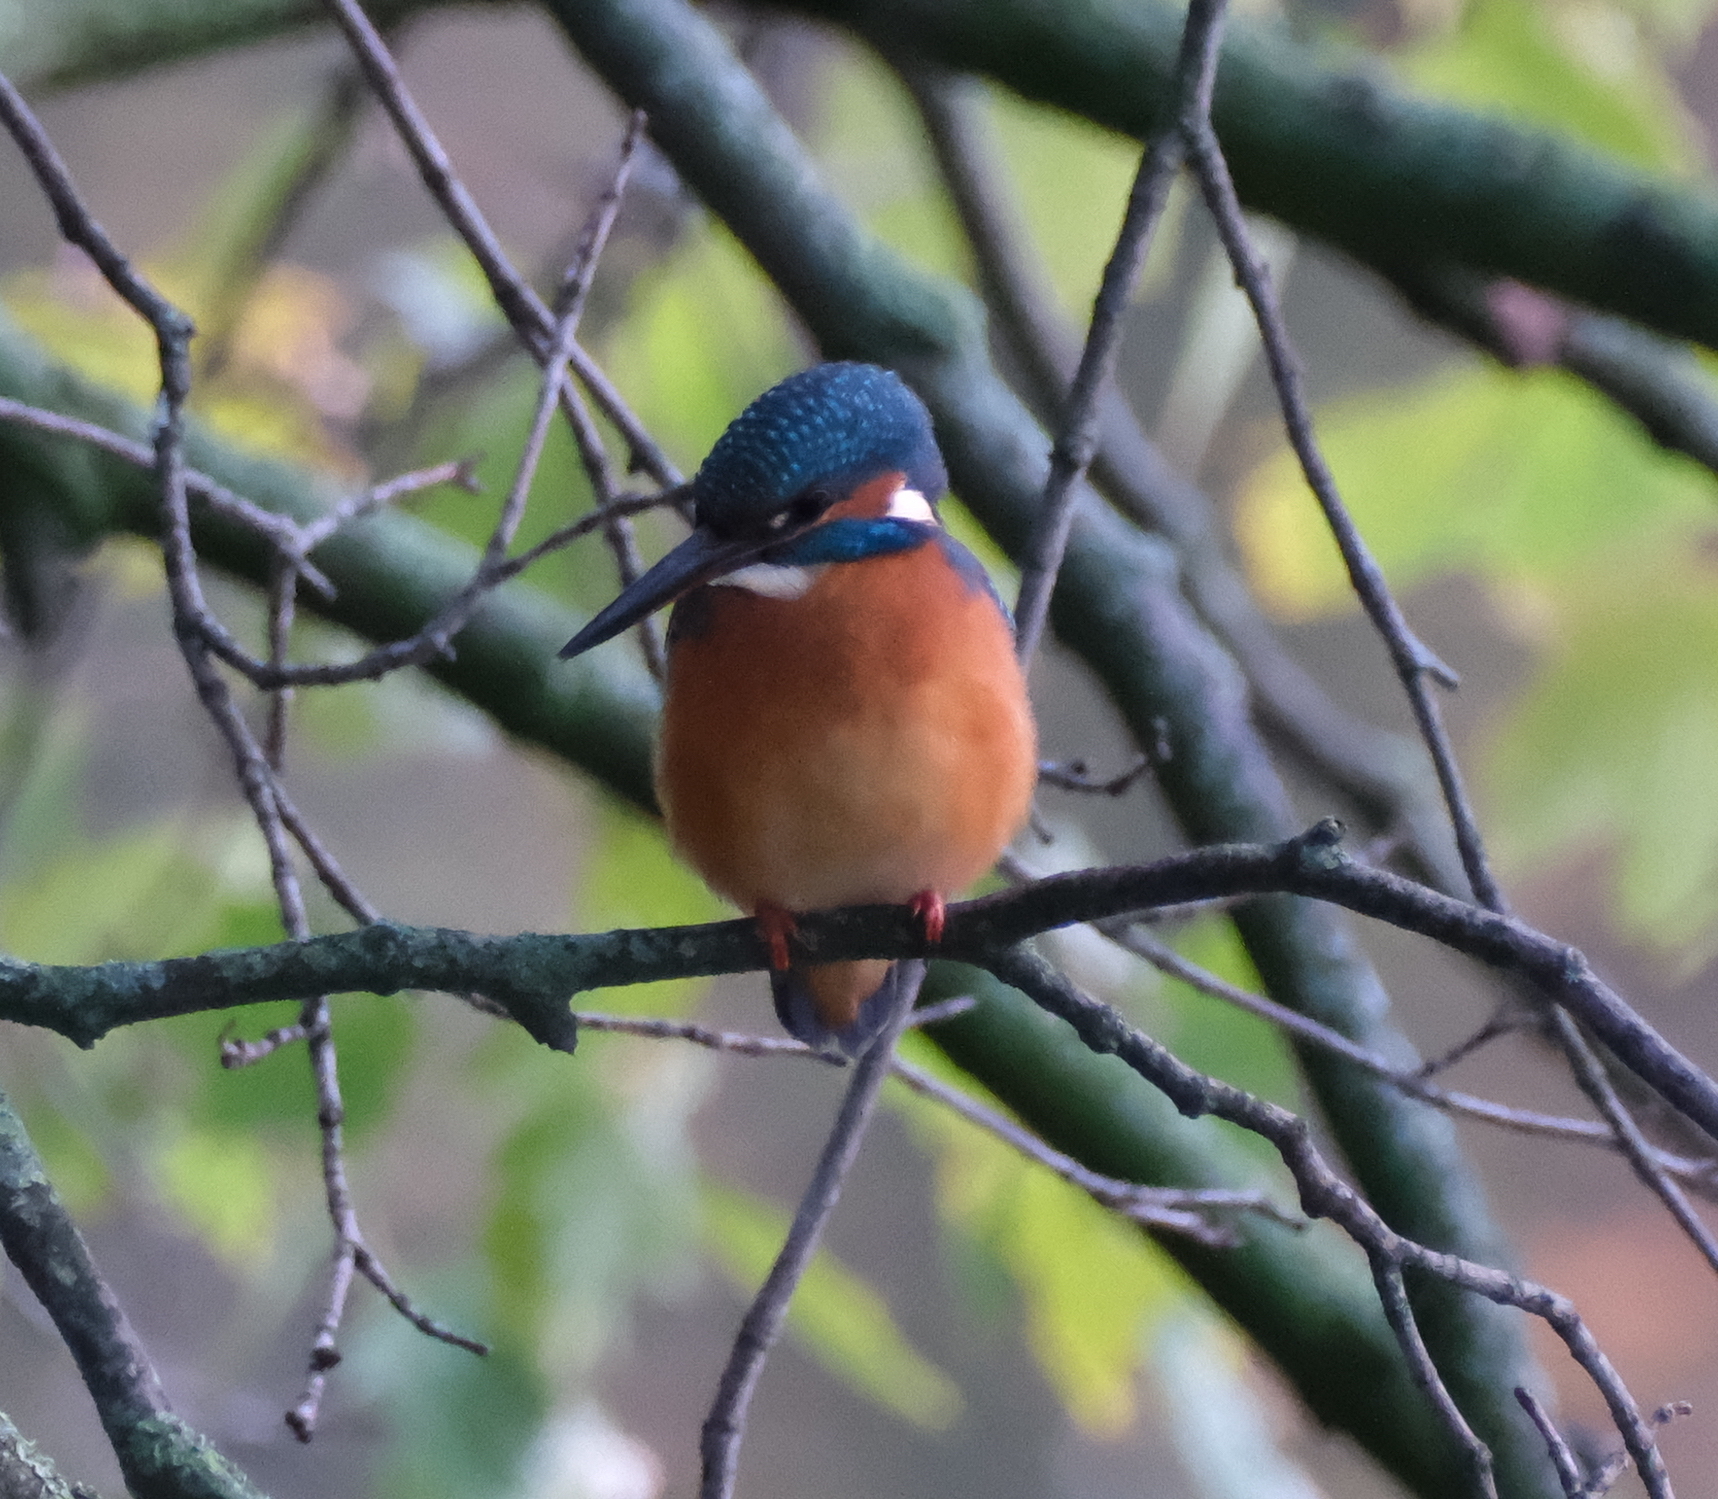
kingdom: Animalia
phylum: Chordata
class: Aves
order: Coraciiformes
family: Alcedinidae
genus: Alcedo
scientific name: Alcedo atthis
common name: Common kingfisher
